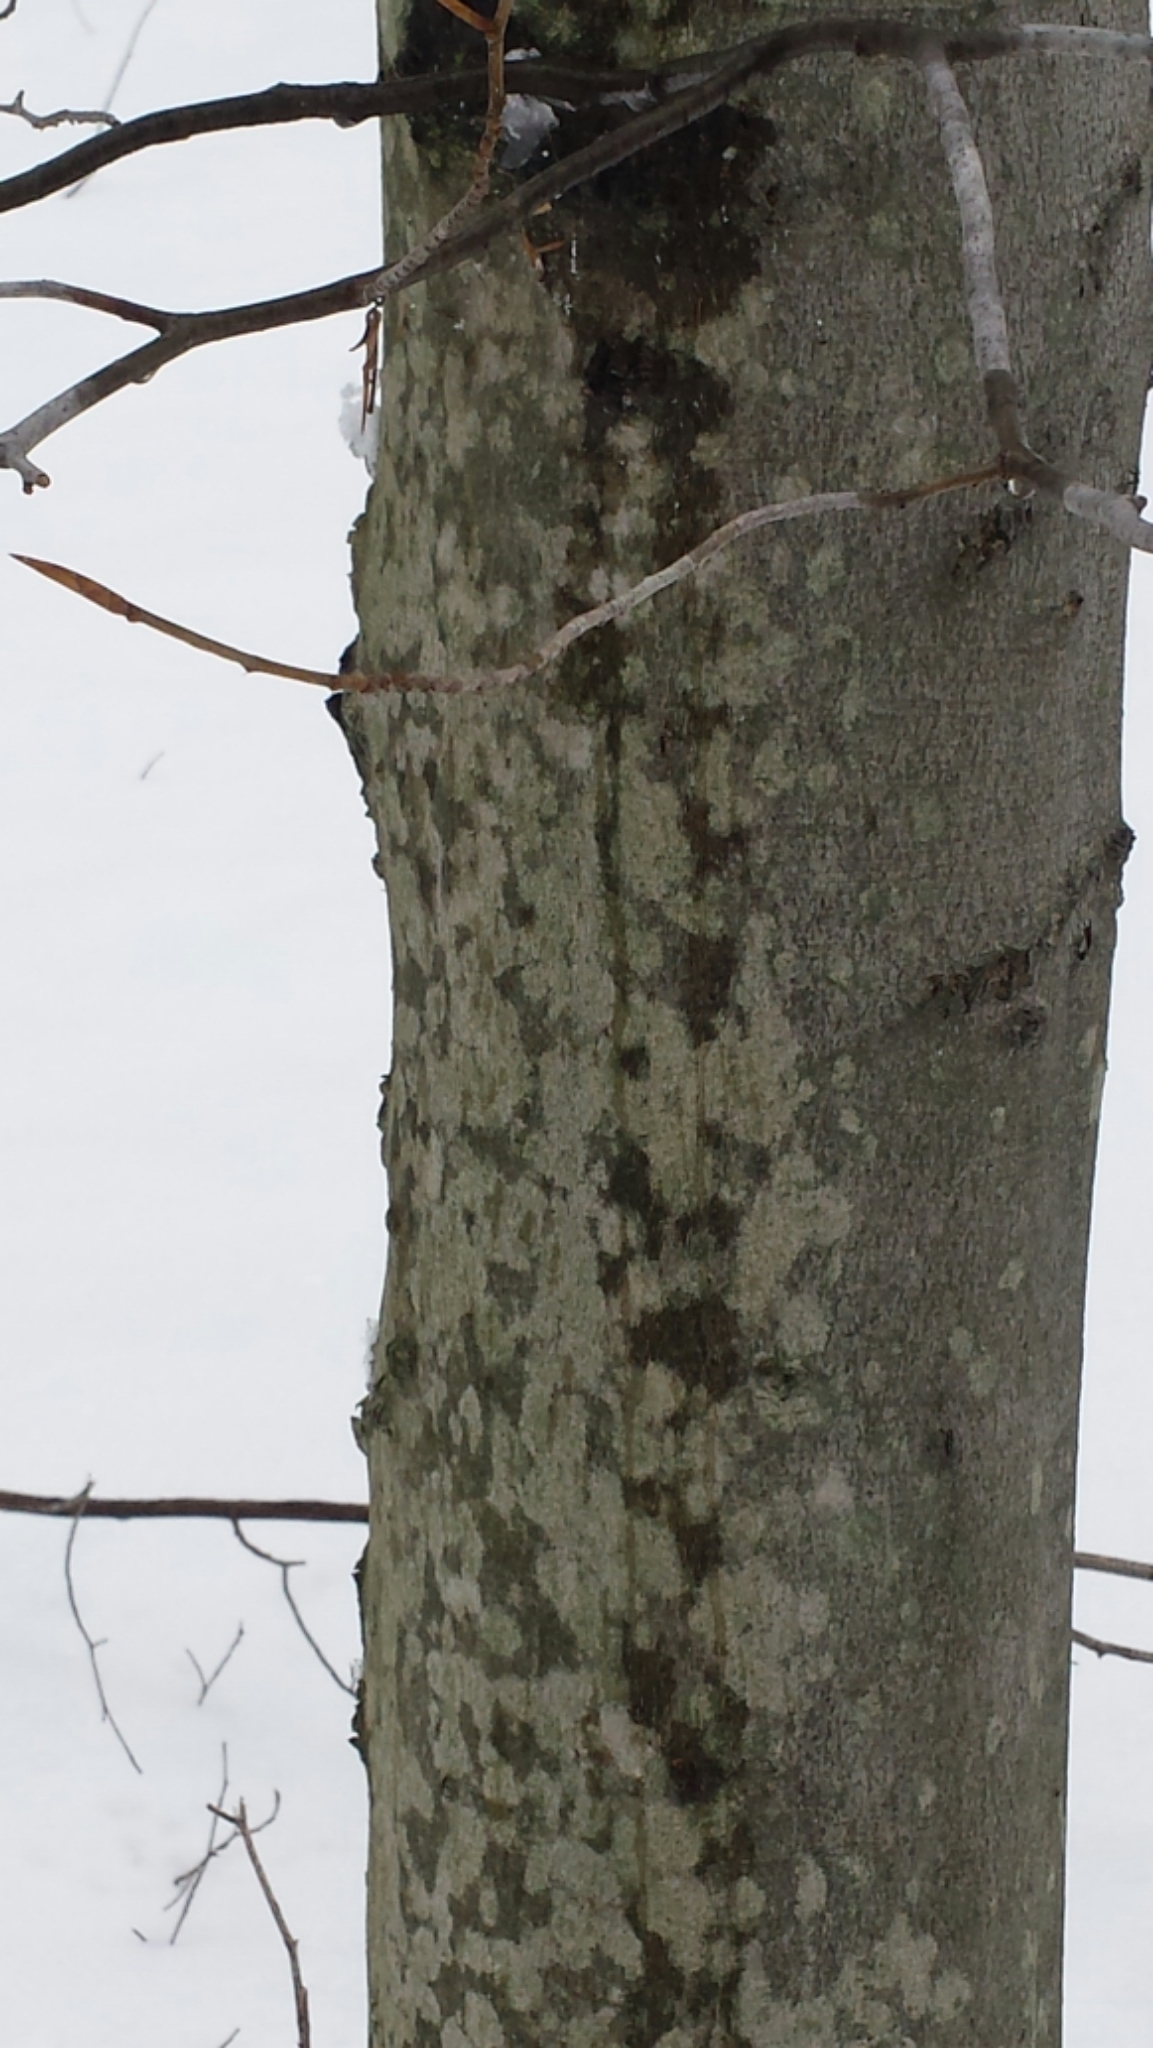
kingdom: Plantae
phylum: Tracheophyta
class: Magnoliopsida
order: Fagales
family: Fagaceae
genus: Fagus
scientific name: Fagus grandifolia
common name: American beech
